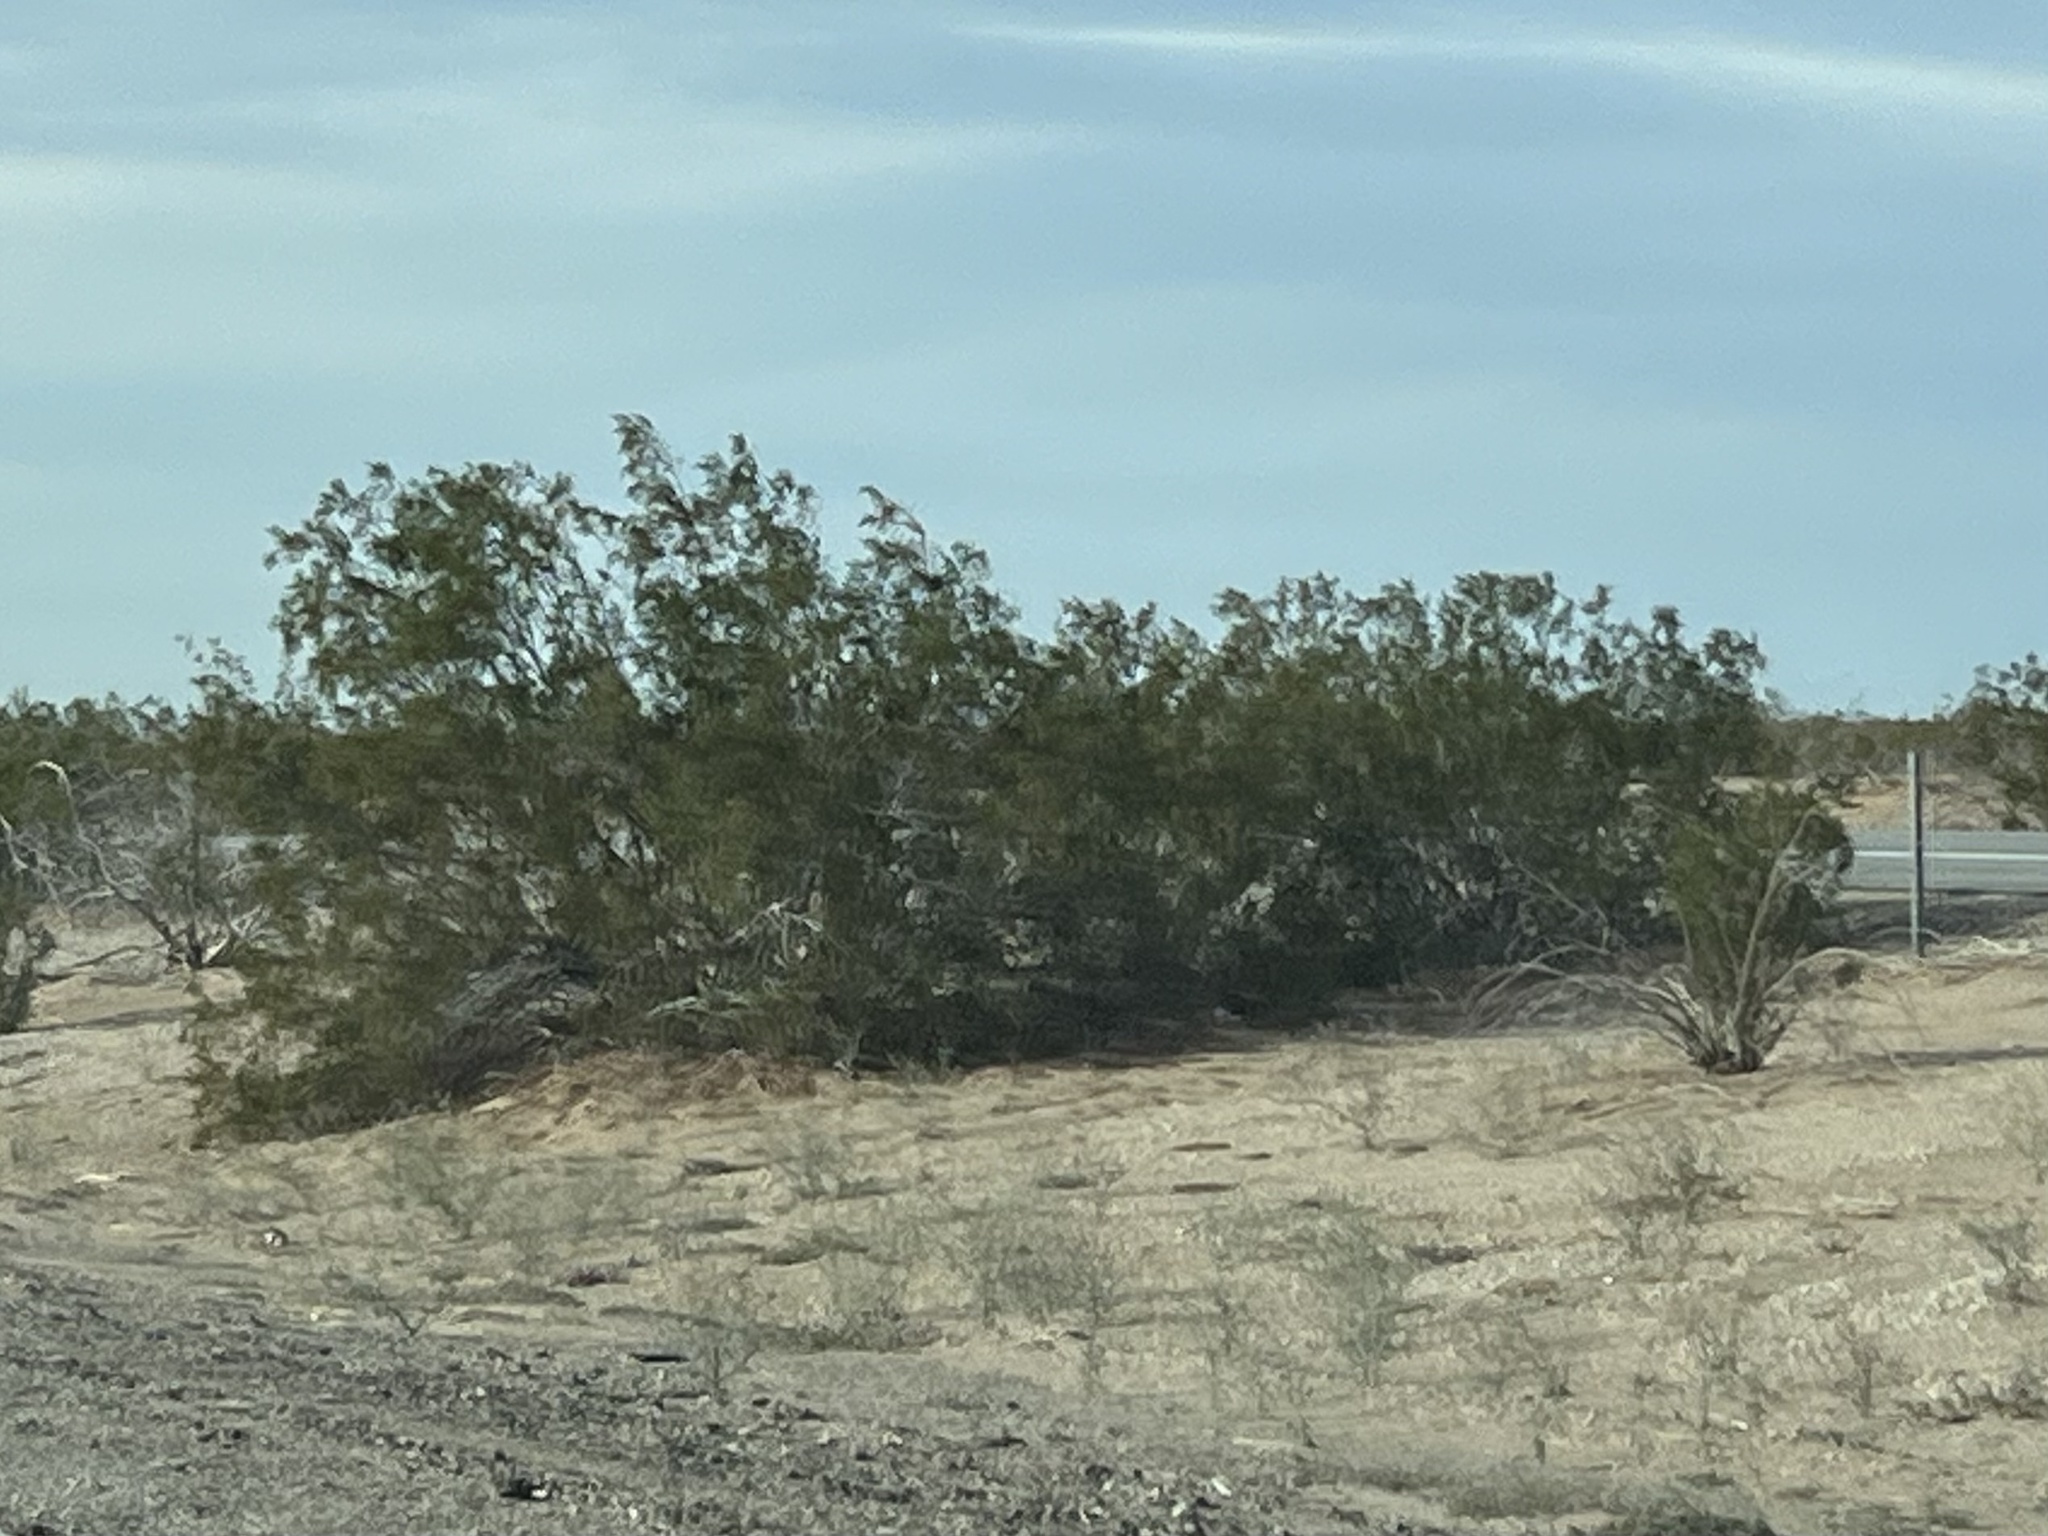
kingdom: Plantae
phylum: Tracheophyta
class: Magnoliopsida
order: Zygophyllales
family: Zygophyllaceae
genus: Larrea
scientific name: Larrea tridentata
